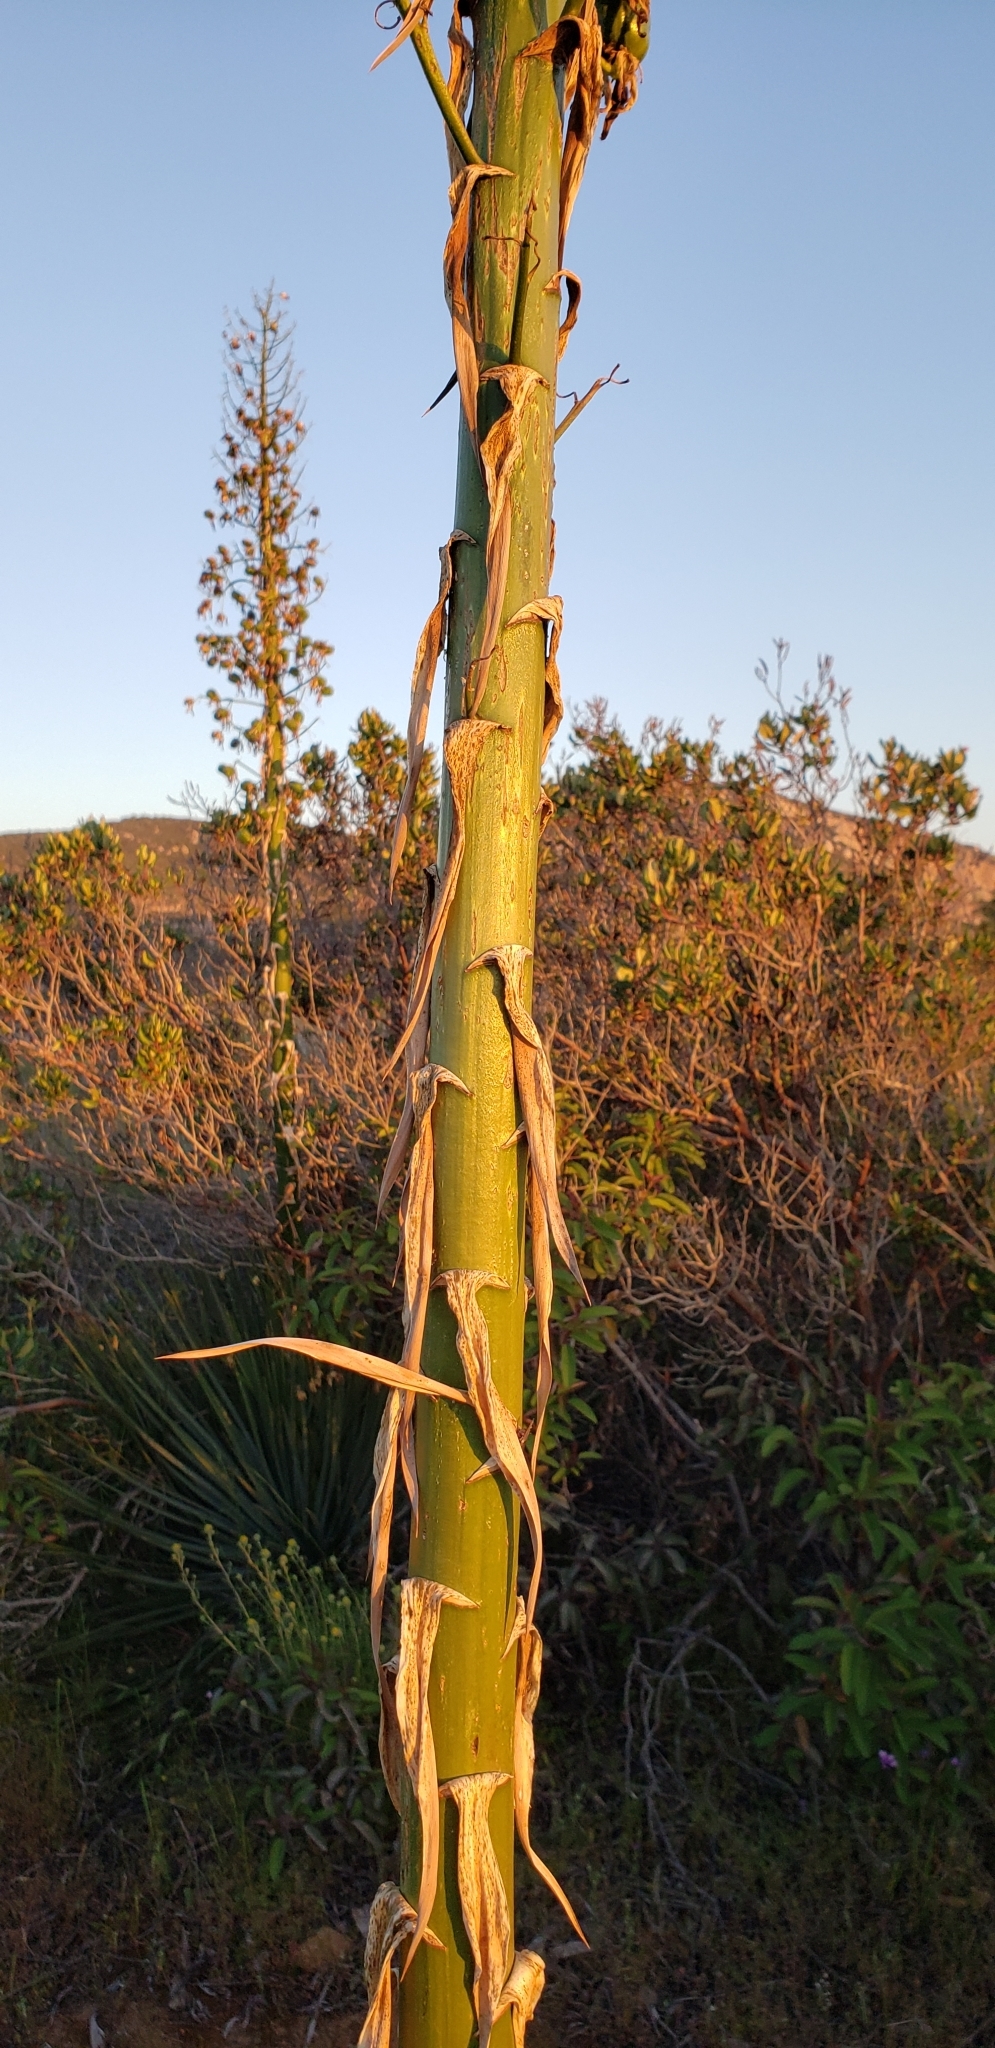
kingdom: Plantae
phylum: Tracheophyta
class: Liliopsida
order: Asparagales
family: Asparagaceae
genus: Hesperoyucca
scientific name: Hesperoyucca whipplei
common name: Our lord's-candle
